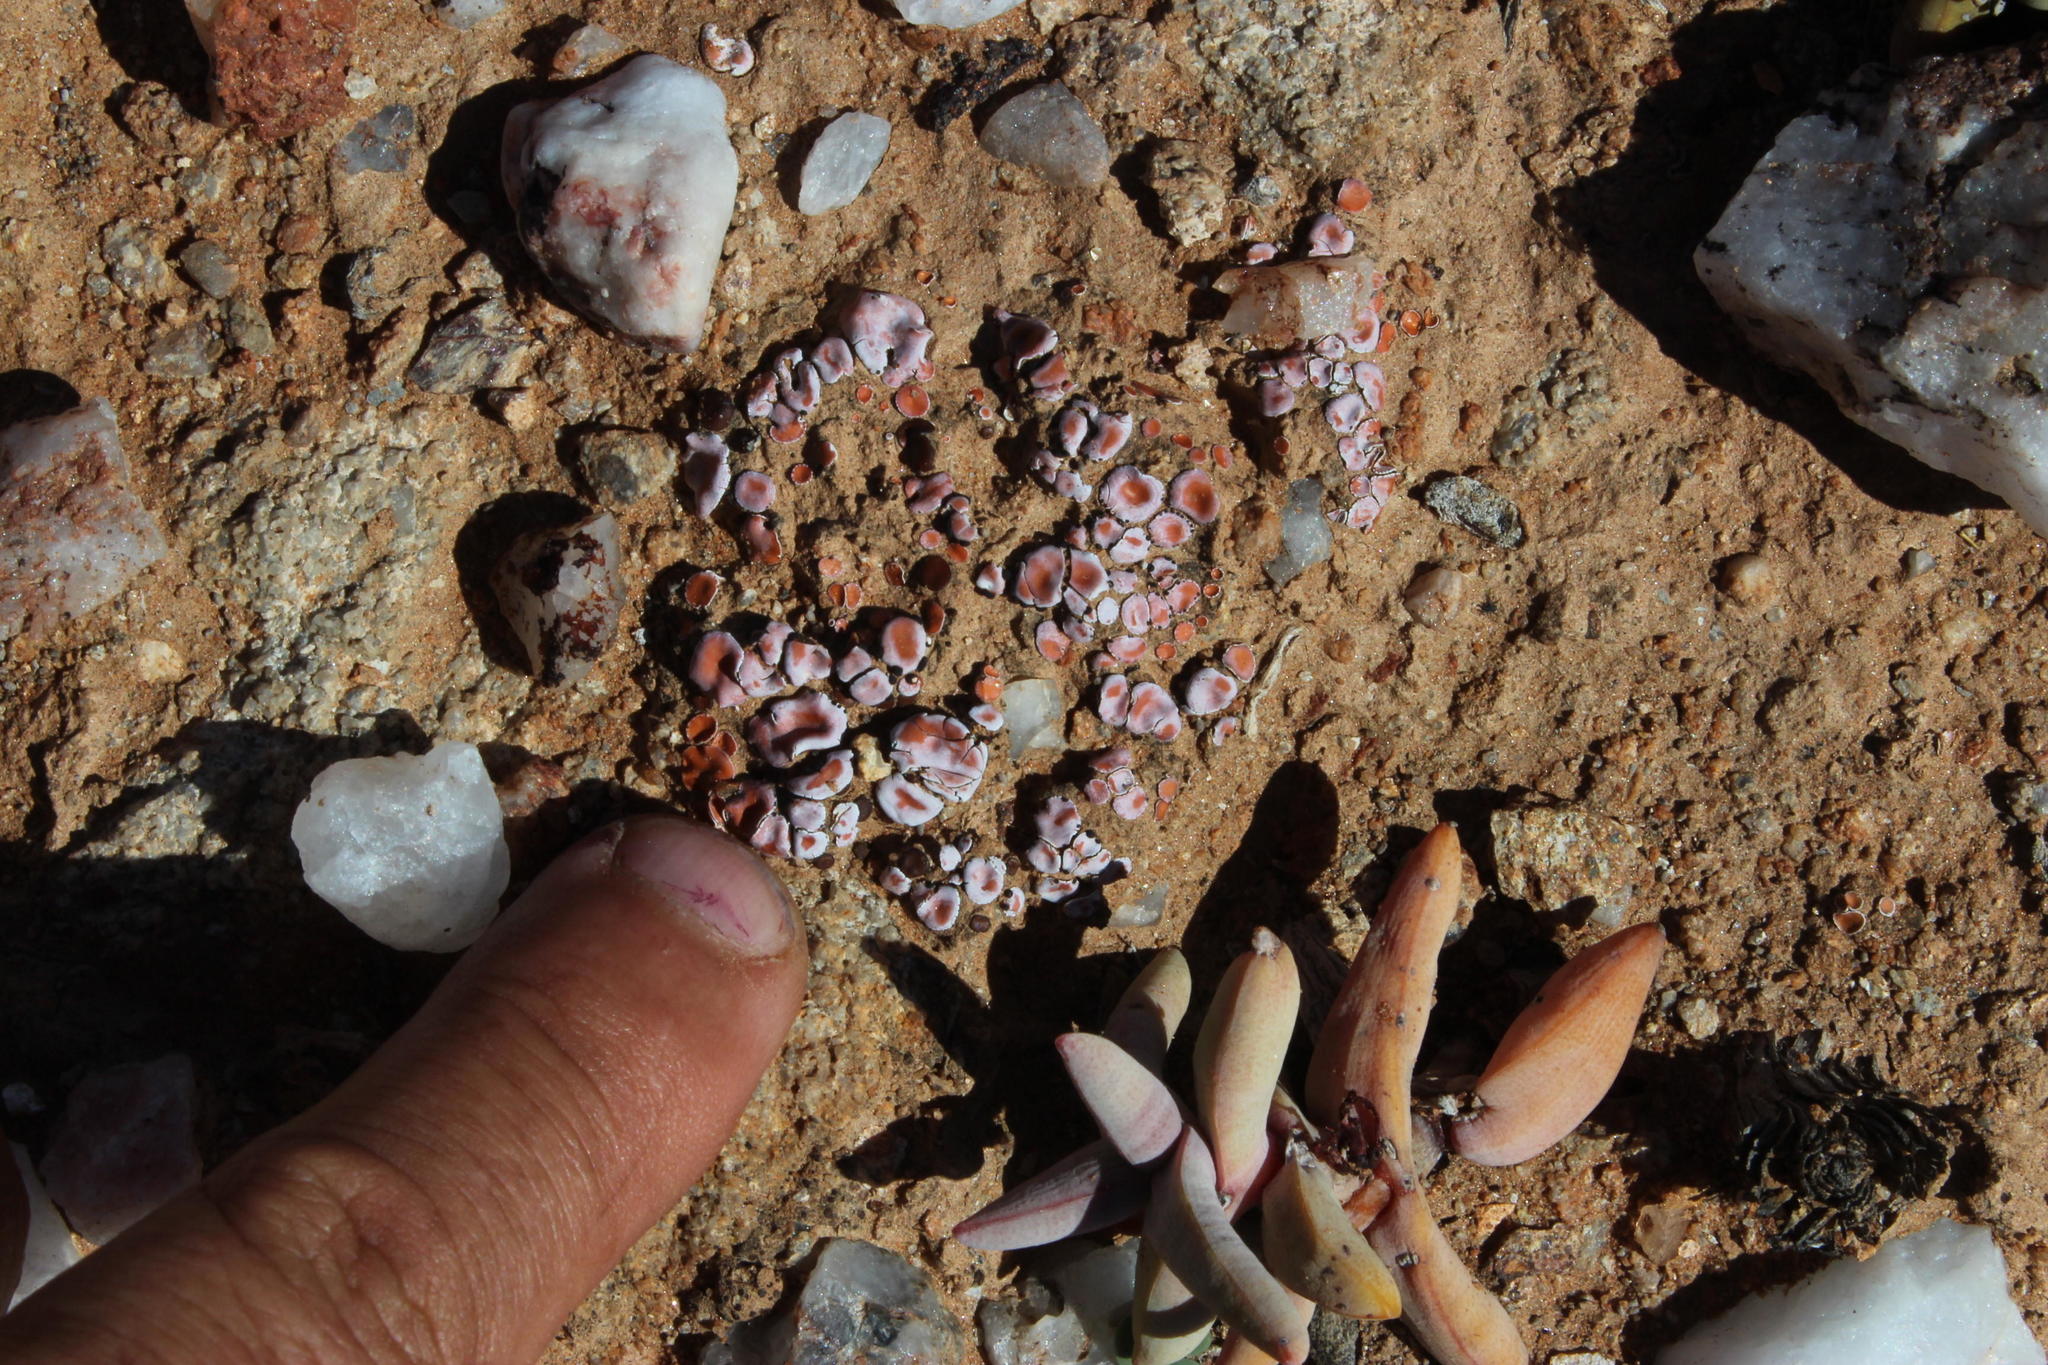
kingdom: Fungi
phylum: Ascomycota
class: Lecanoromycetes
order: Lecanorales
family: Psoraceae
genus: Psora
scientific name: Psora crenata
